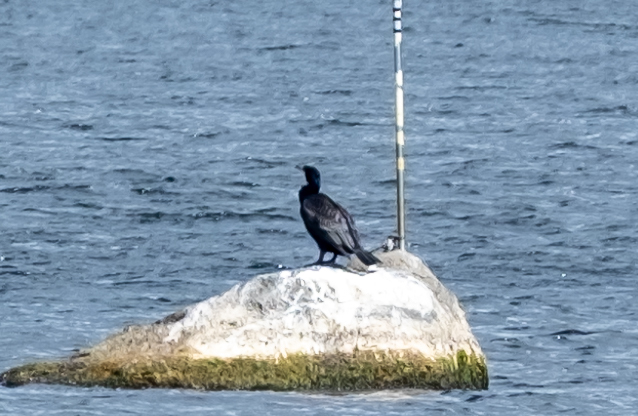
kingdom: Animalia
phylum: Chordata
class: Aves
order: Suliformes
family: Phalacrocoracidae
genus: Phalacrocorax
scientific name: Phalacrocorax carbo
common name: Great cormorant
